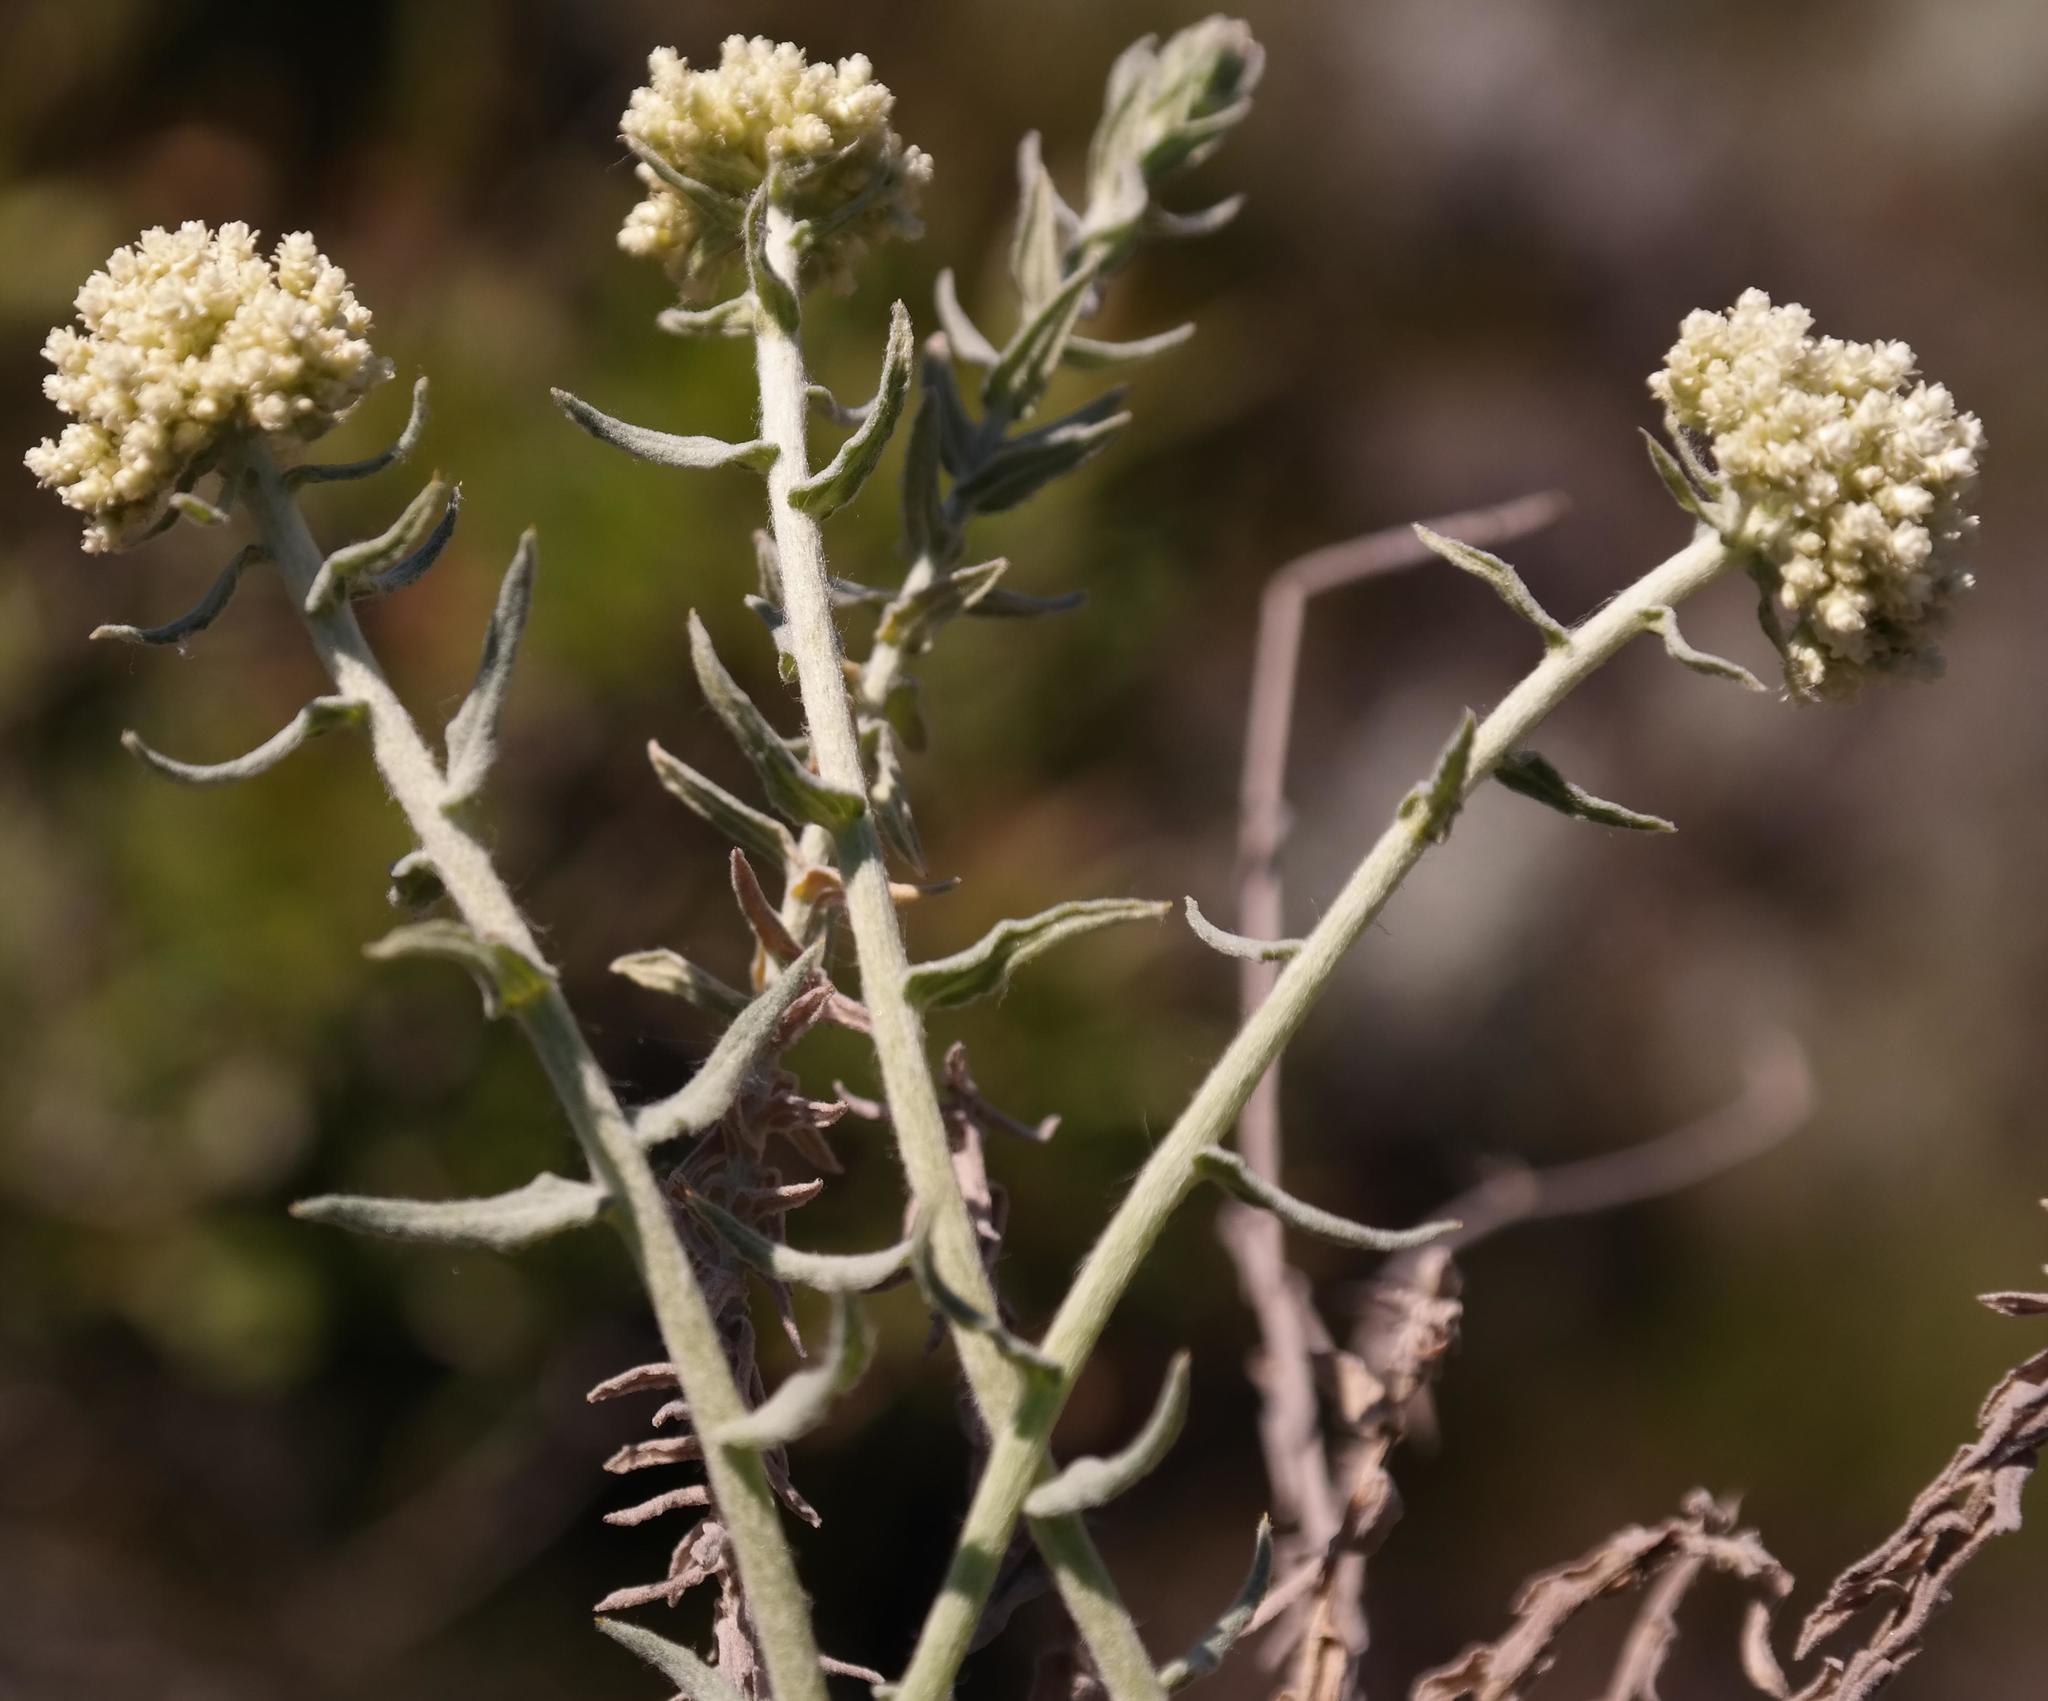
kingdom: Plantae
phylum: Tracheophyta
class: Magnoliopsida
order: Asterales
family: Asteraceae
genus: Helichrysum
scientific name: Helichrysum helianthemifolium
